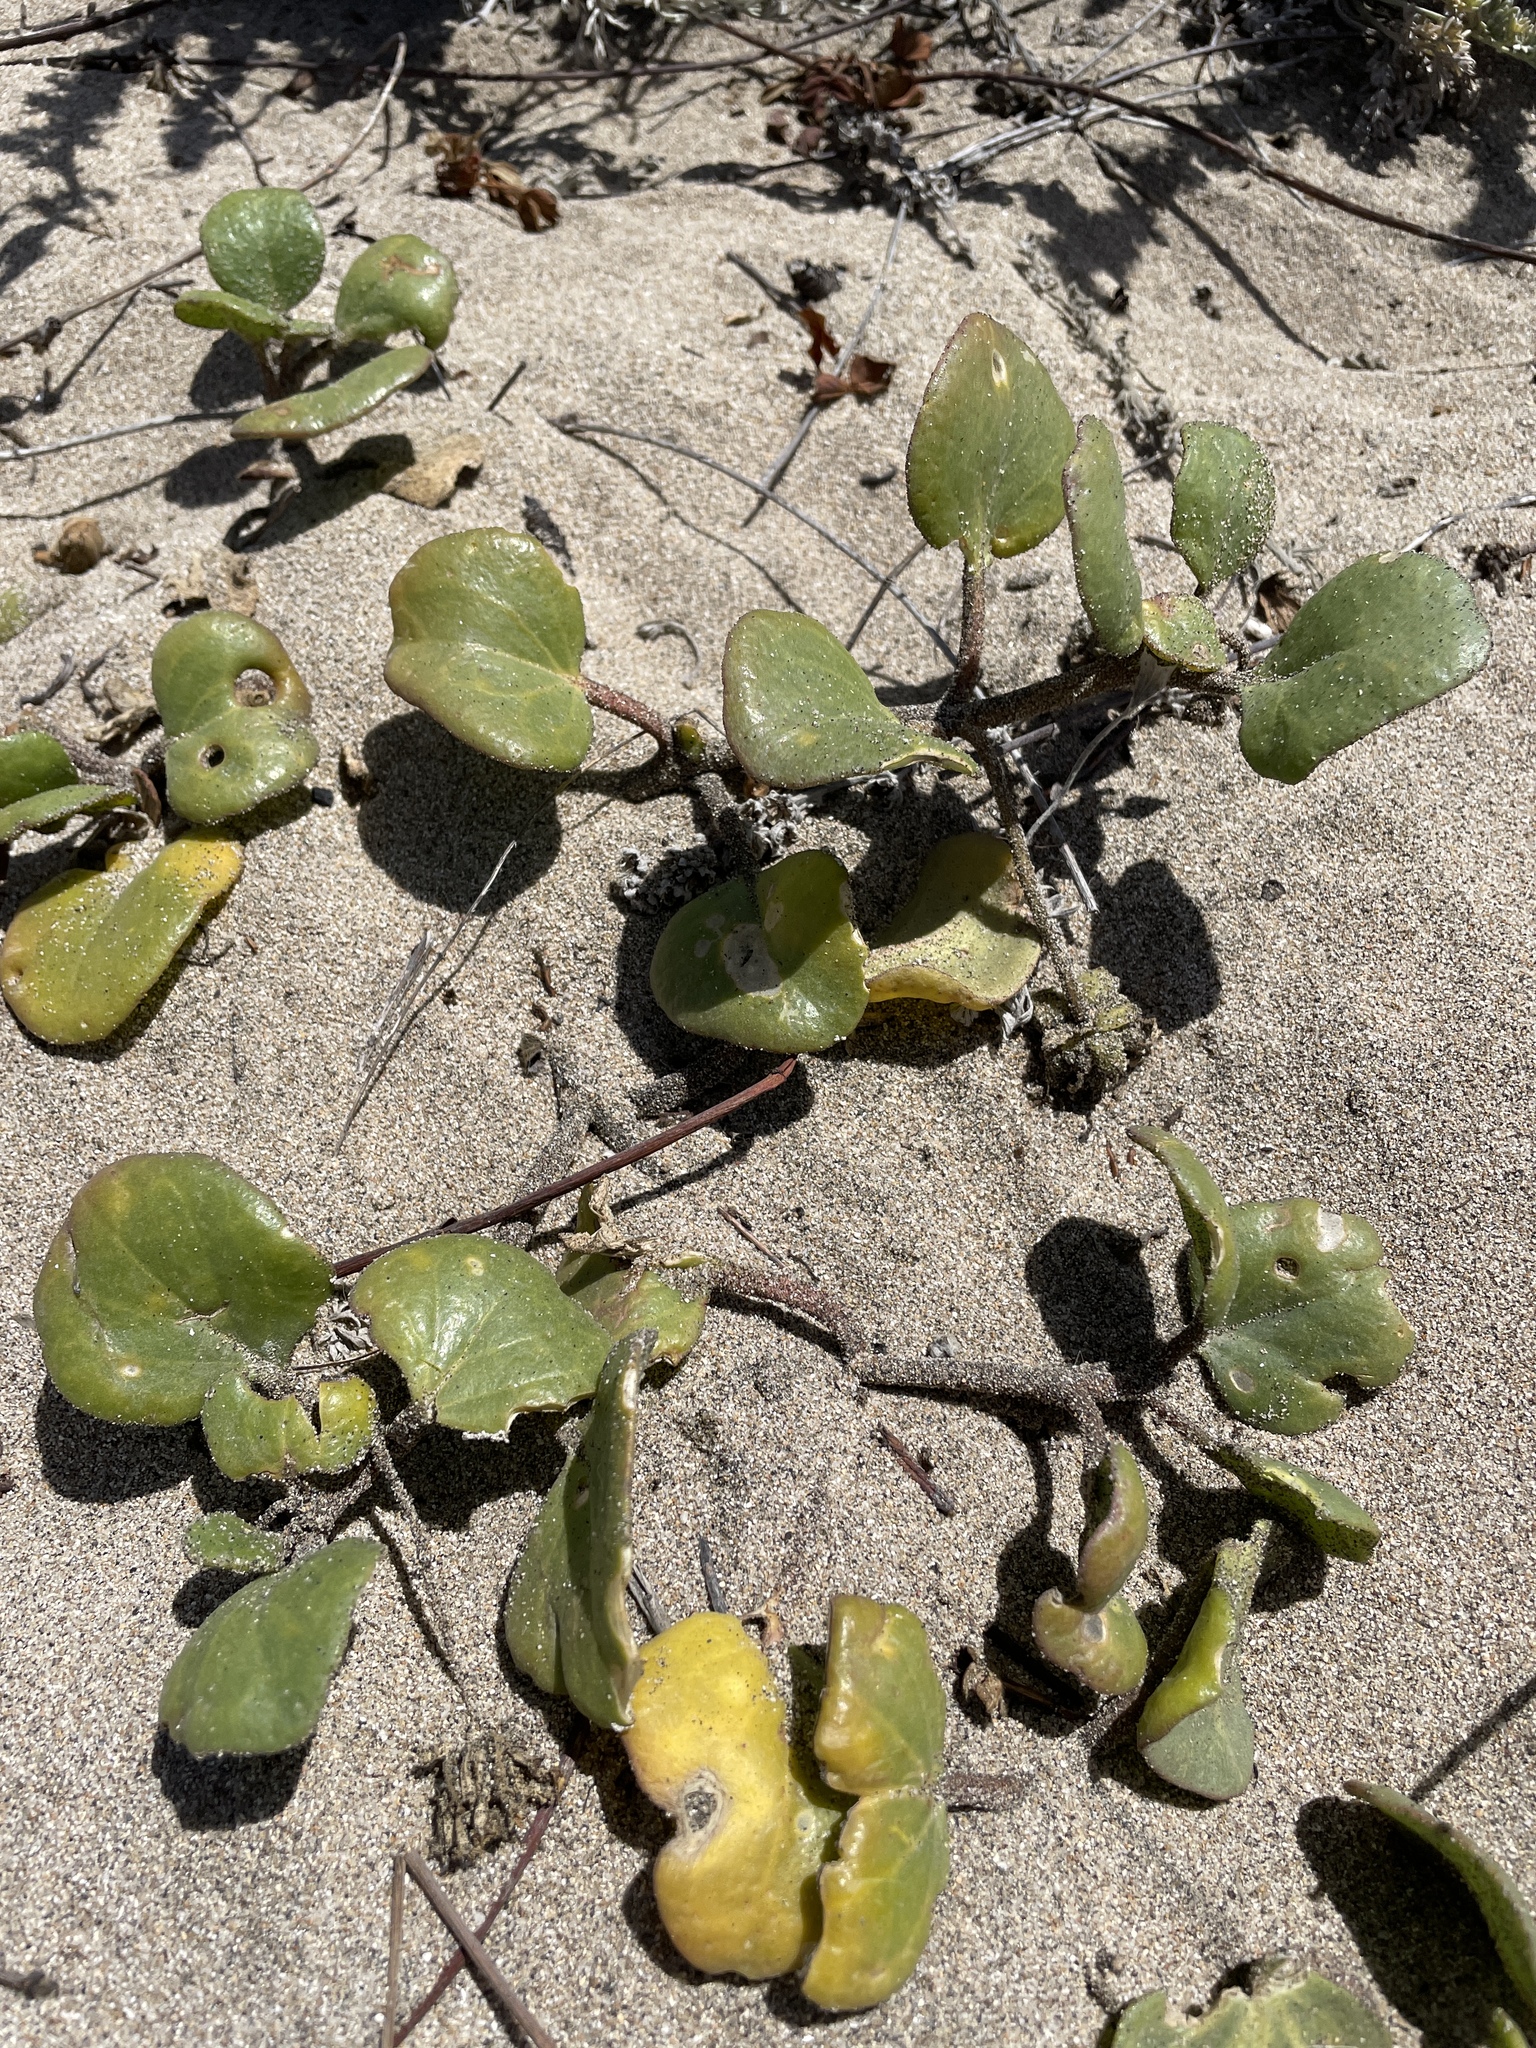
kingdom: Plantae
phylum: Tracheophyta
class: Magnoliopsida
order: Caryophyllales
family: Nyctaginaceae
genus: Abronia
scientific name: Abronia latifolia
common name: Yellow sand-verbena
